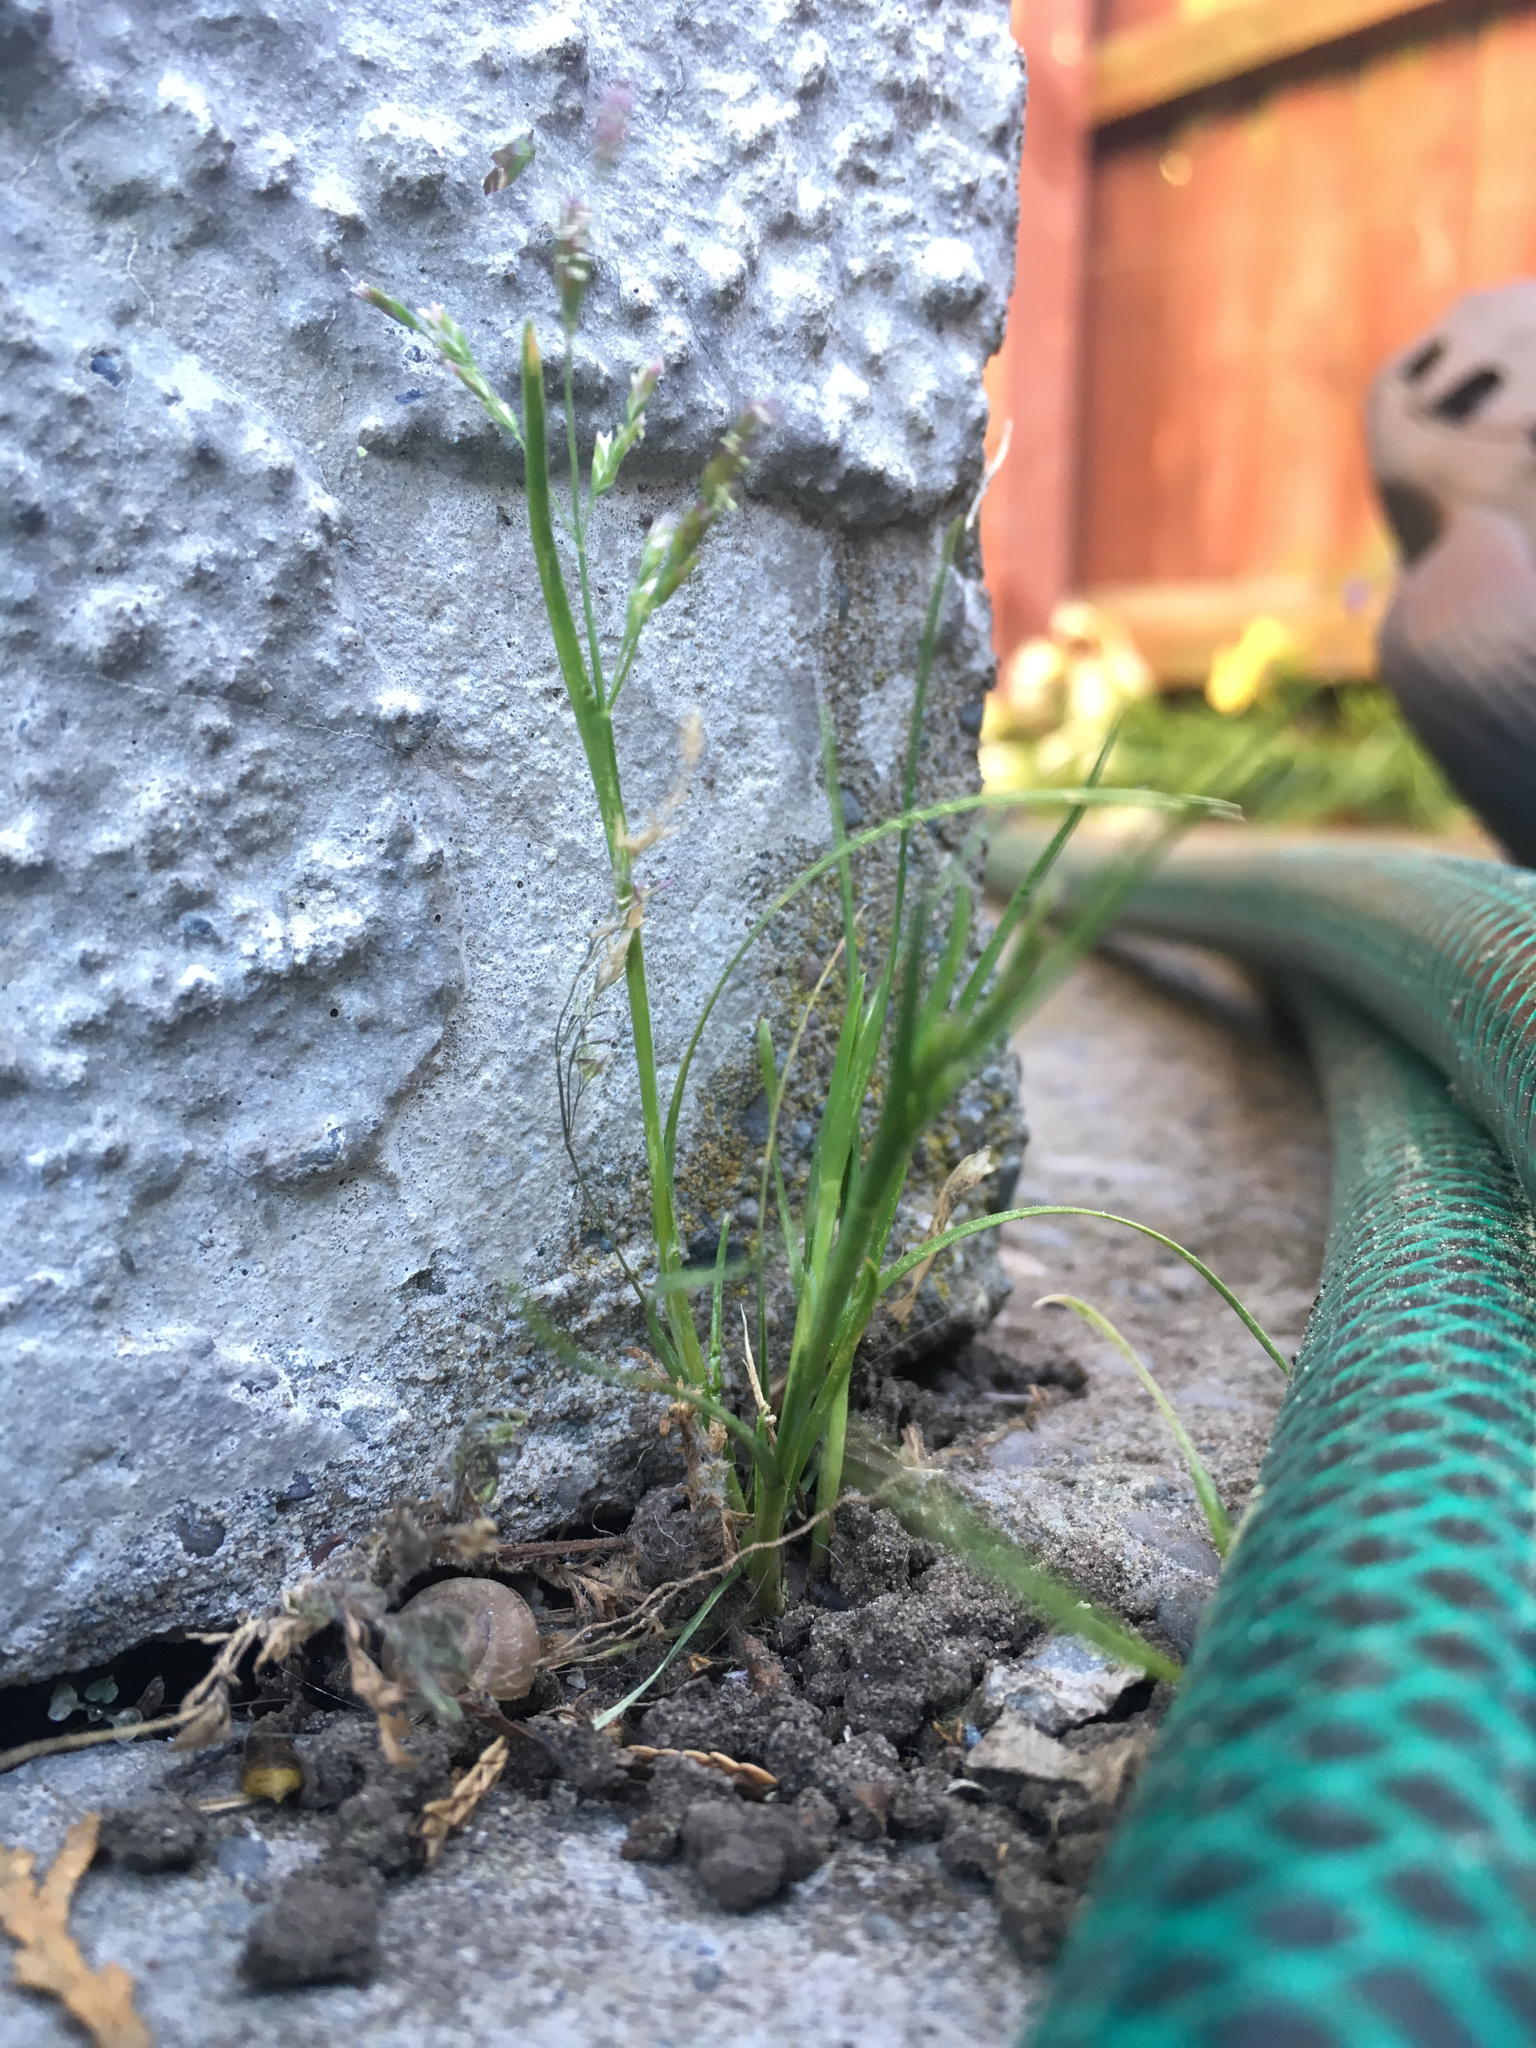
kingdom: Plantae
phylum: Tracheophyta
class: Liliopsida
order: Poales
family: Poaceae
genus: Poa
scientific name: Poa annua
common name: Annual bluegrass
